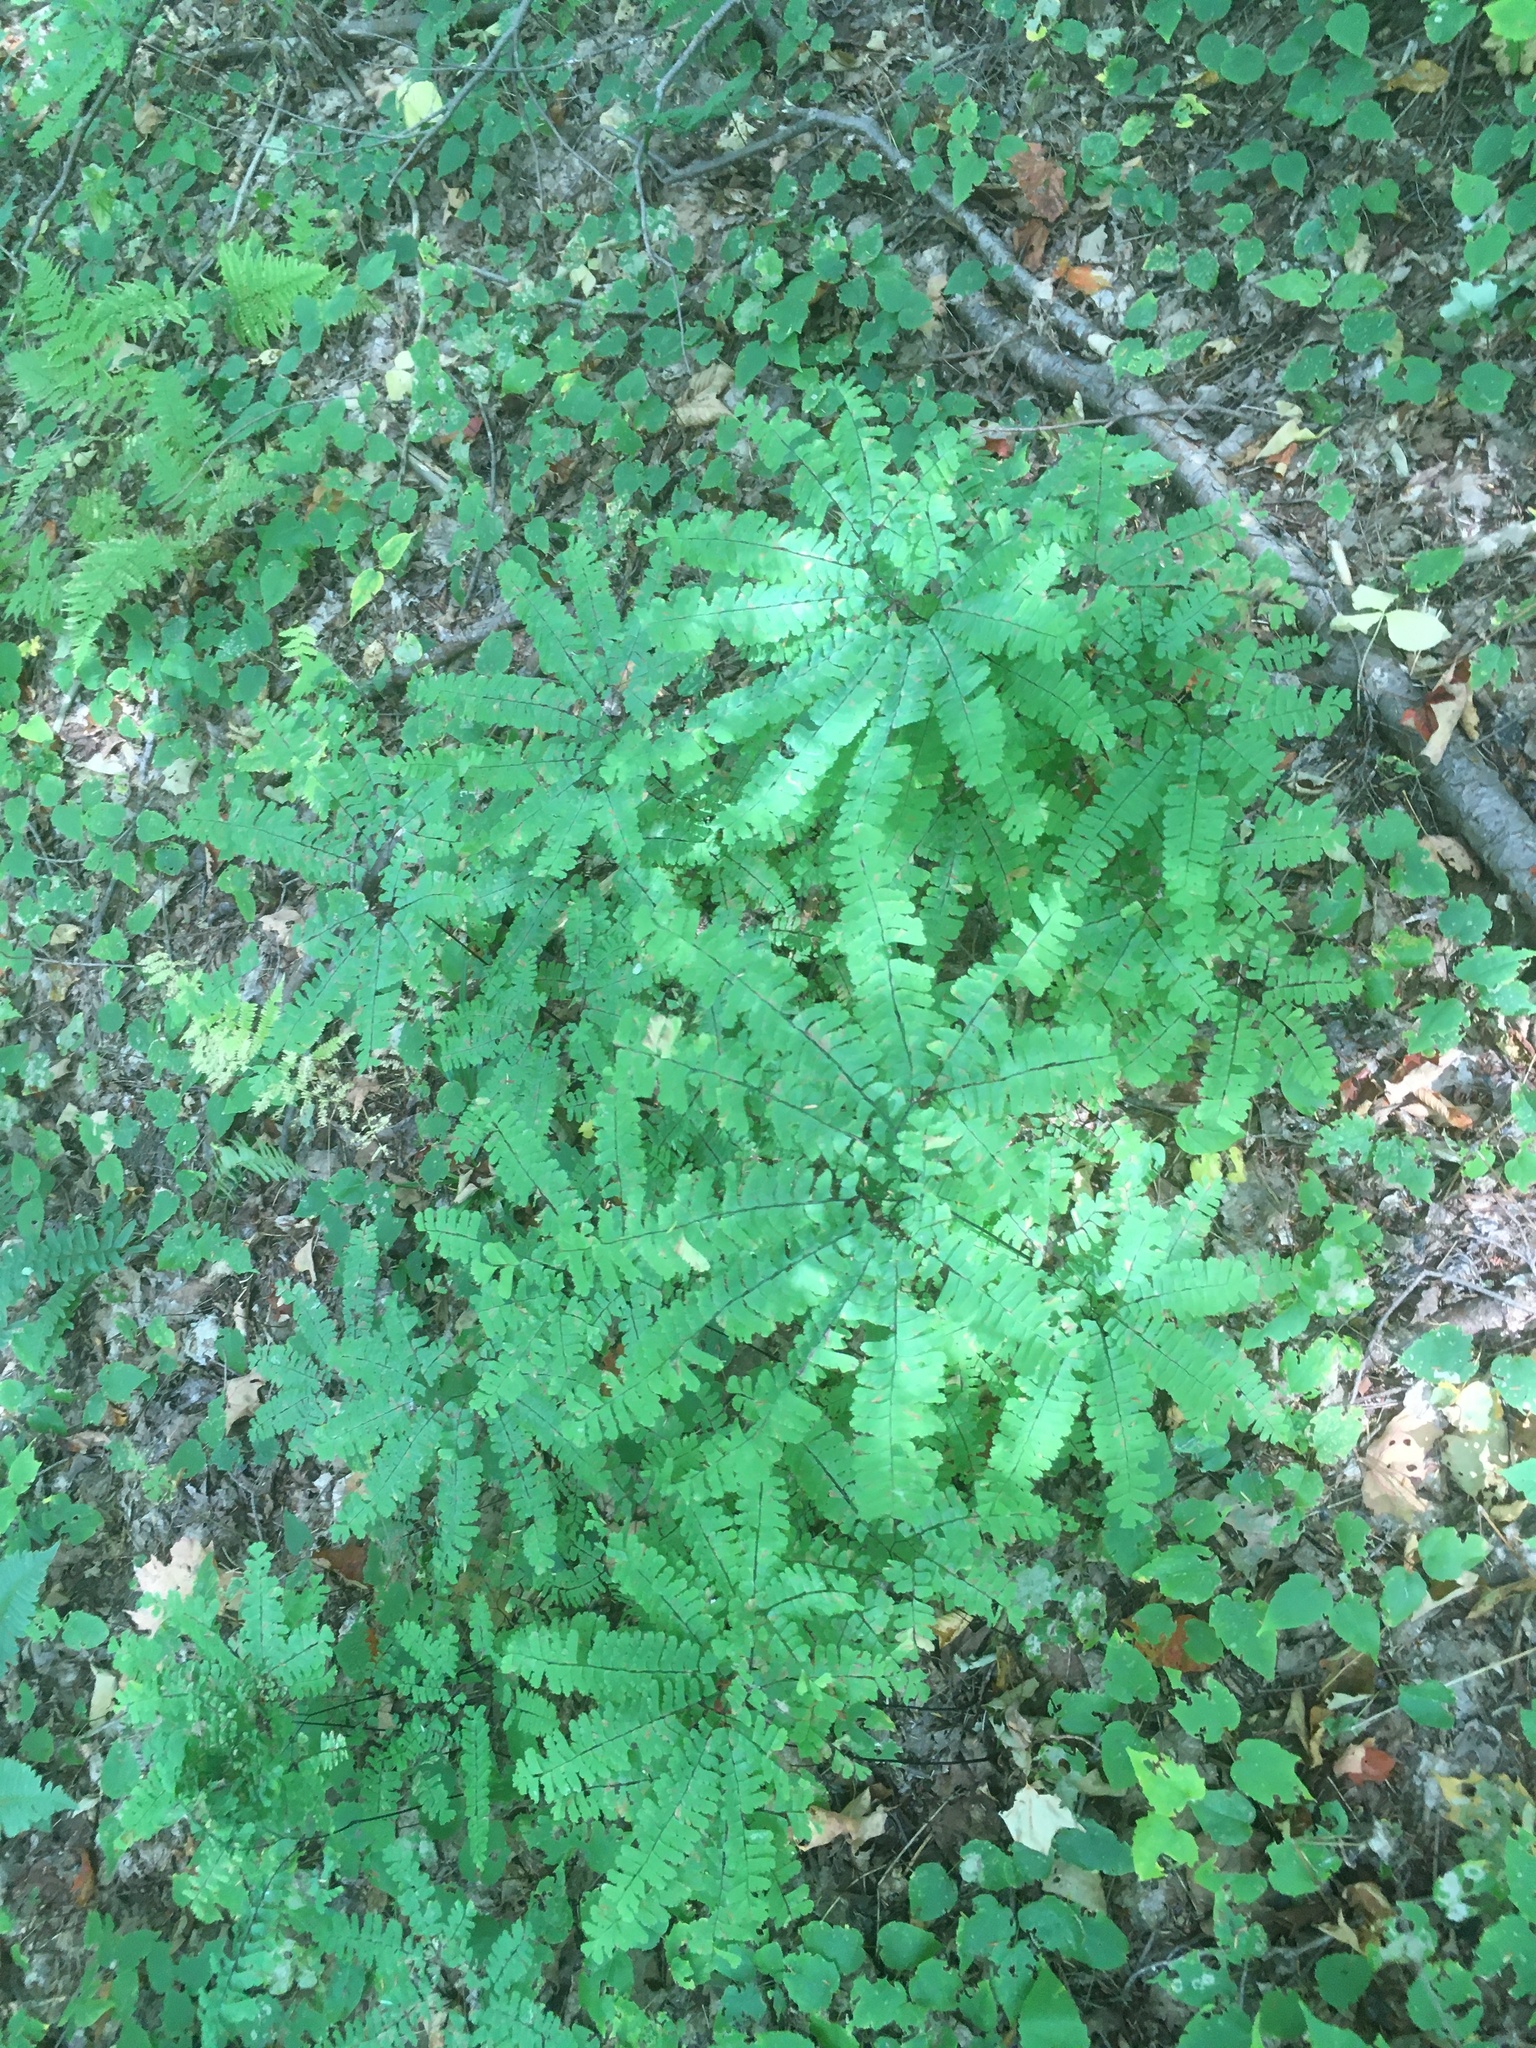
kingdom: Plantae
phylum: Tracheophyta
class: Polypodiopsida
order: Polypodiales
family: Pteridaceae
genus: Adiantum
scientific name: Adiantum pedatum
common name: Five-finger fern
